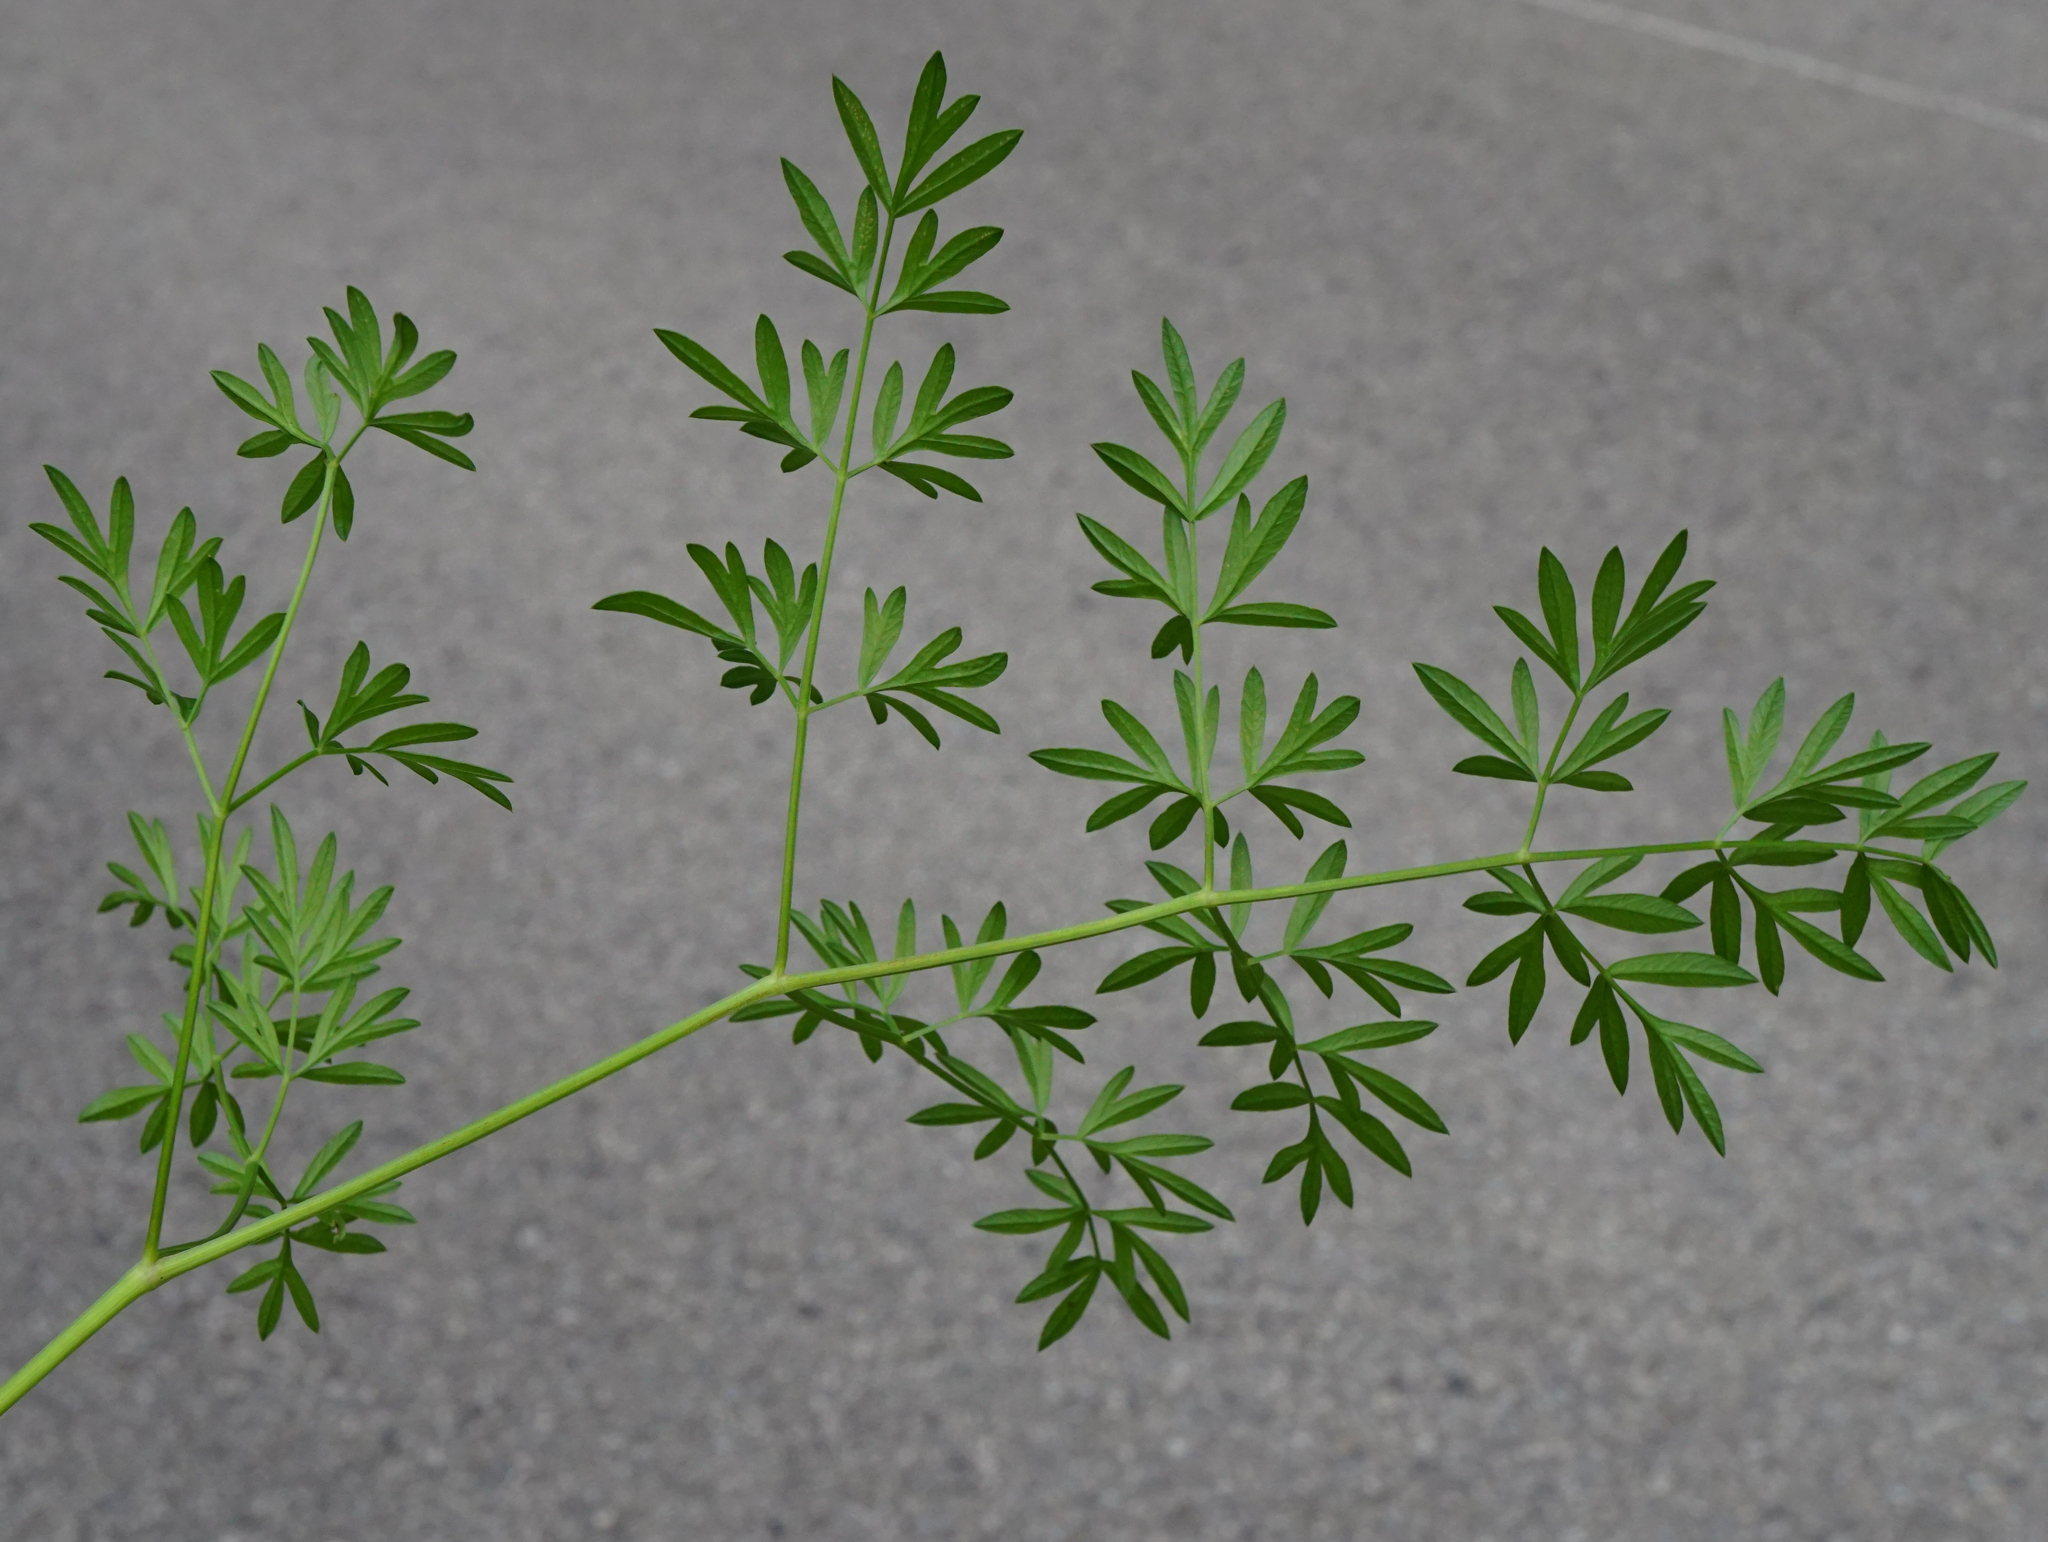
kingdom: Plantae
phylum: Tracheophyta
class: Magnoliopsida
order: Apiales
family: Apiaceae
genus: Silaum
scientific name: Silaum silaus
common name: Pepper-saxifrage
